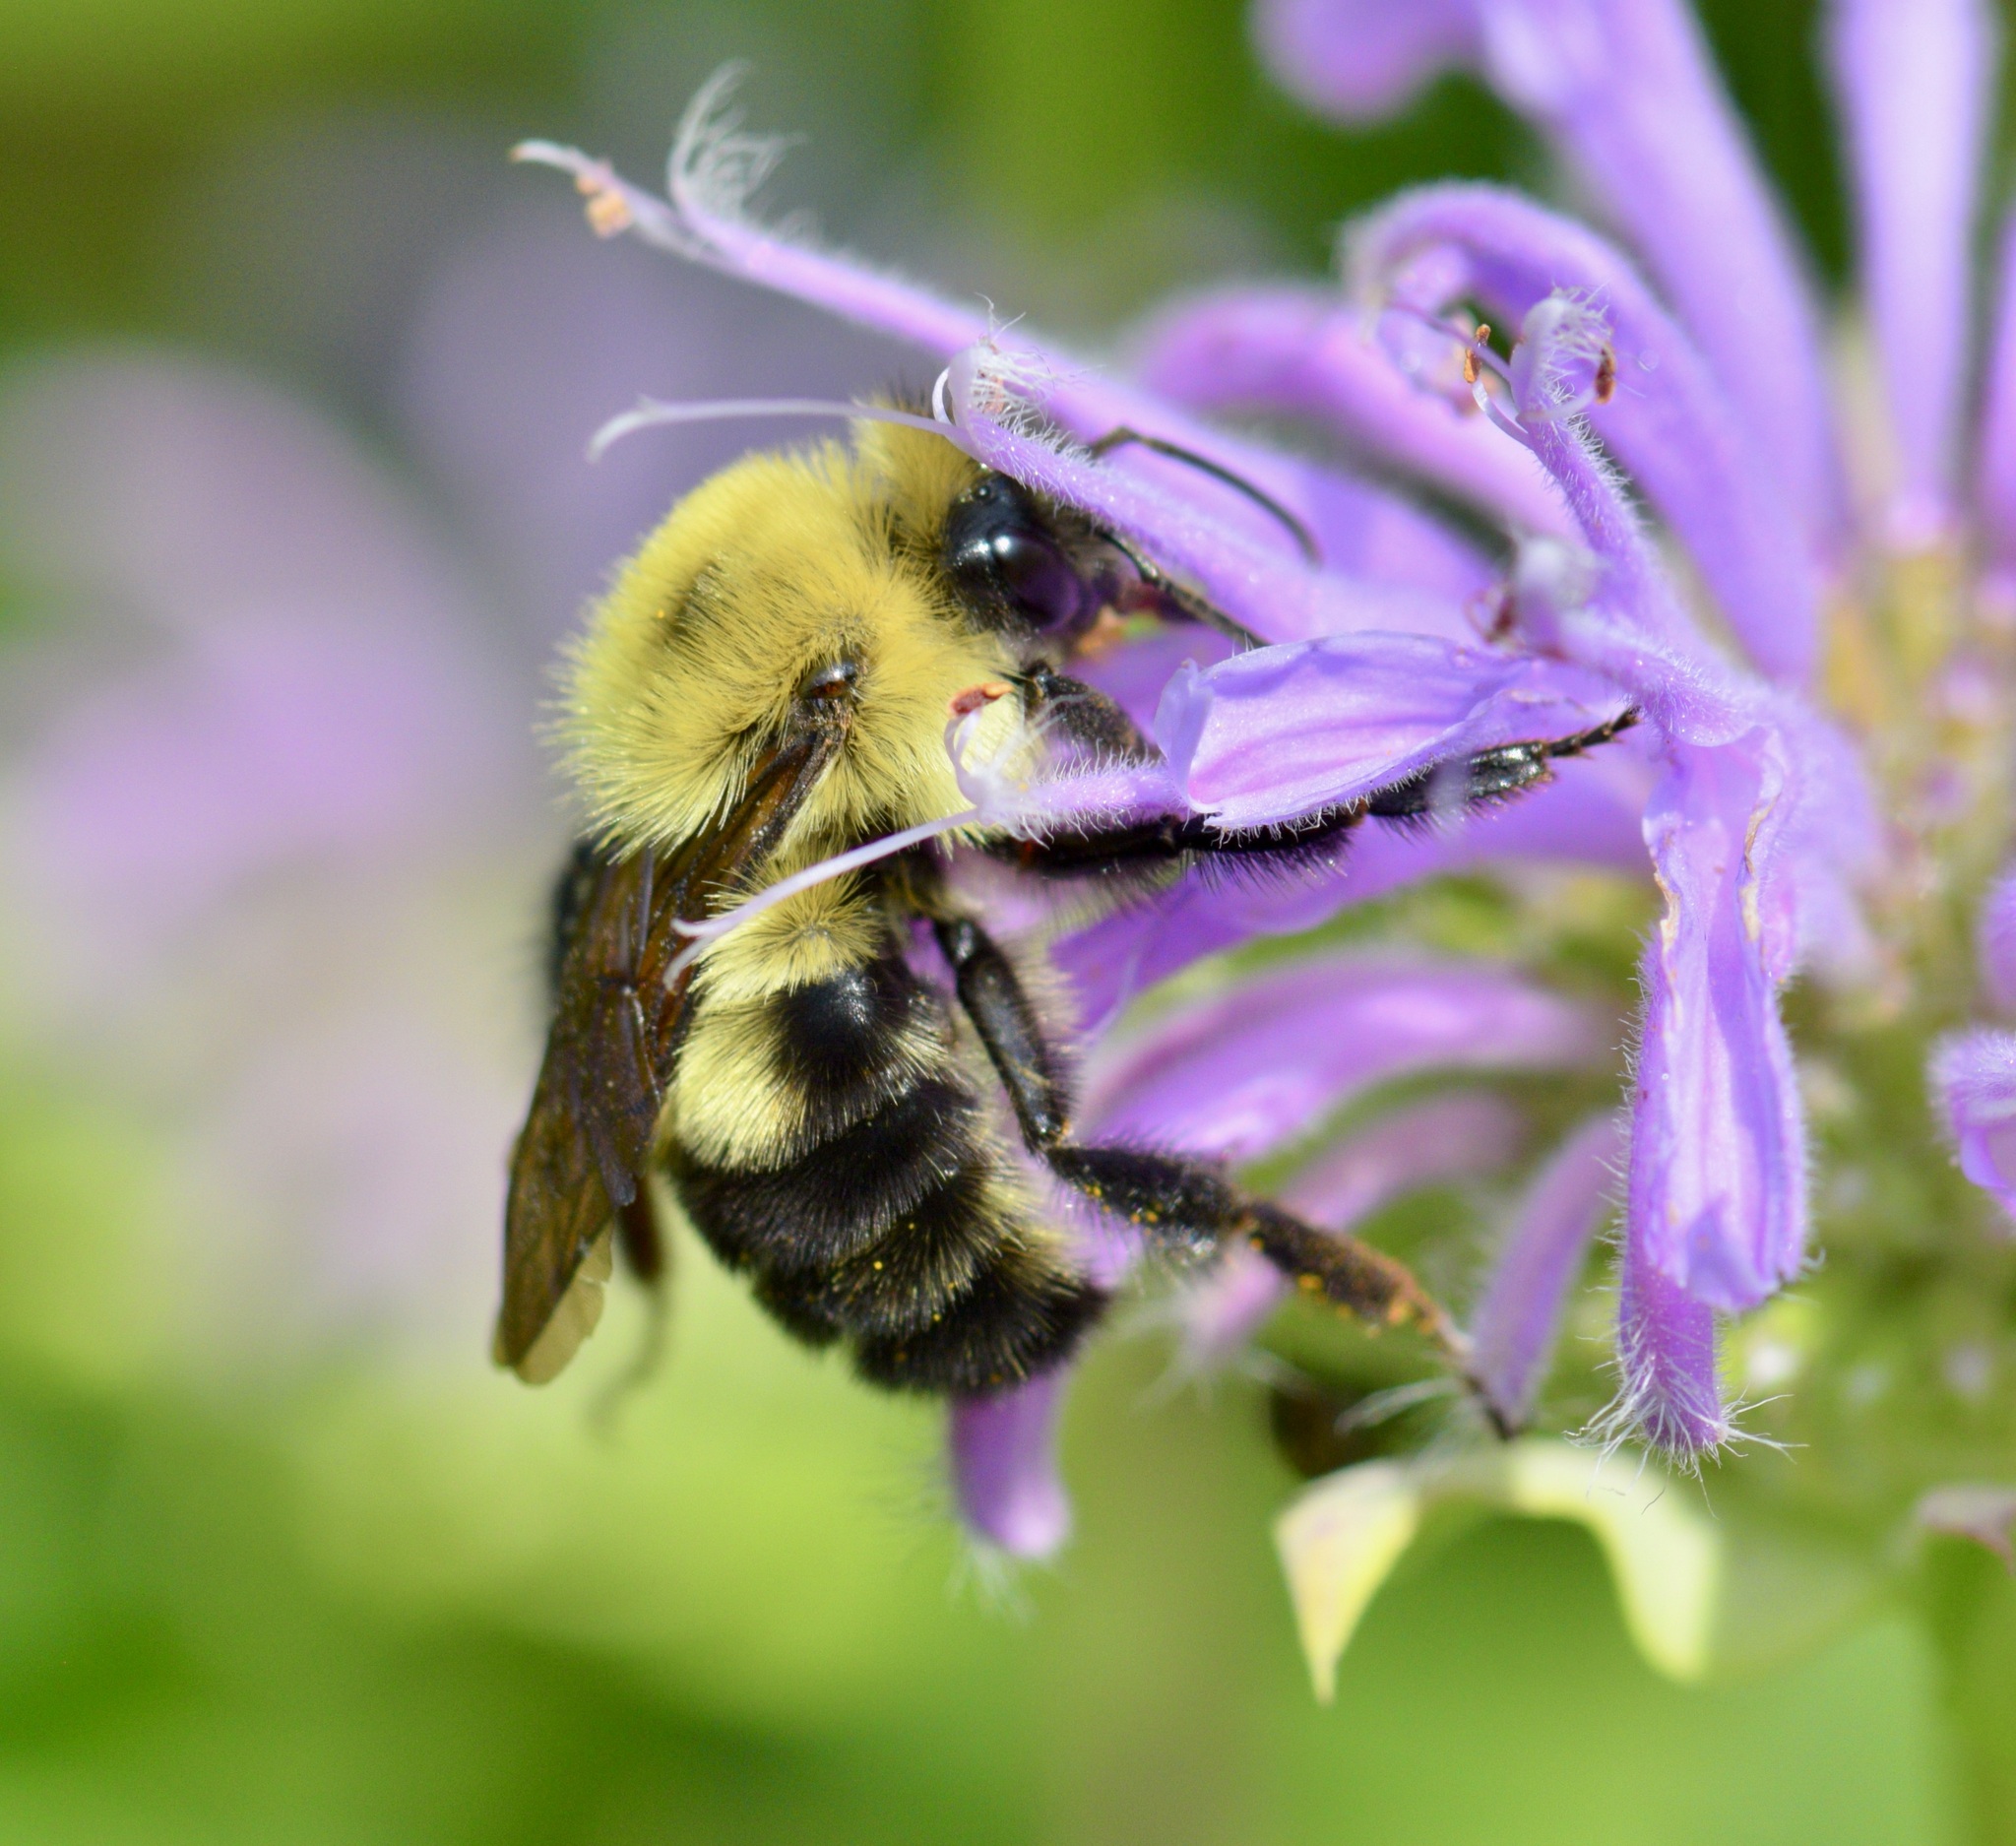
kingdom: Animalia
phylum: Arthropoda
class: Insecta
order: Hymenoptera
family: Apidae
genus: Bombus
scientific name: Bombus bimaculatus
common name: Two-spotted bumble bee
